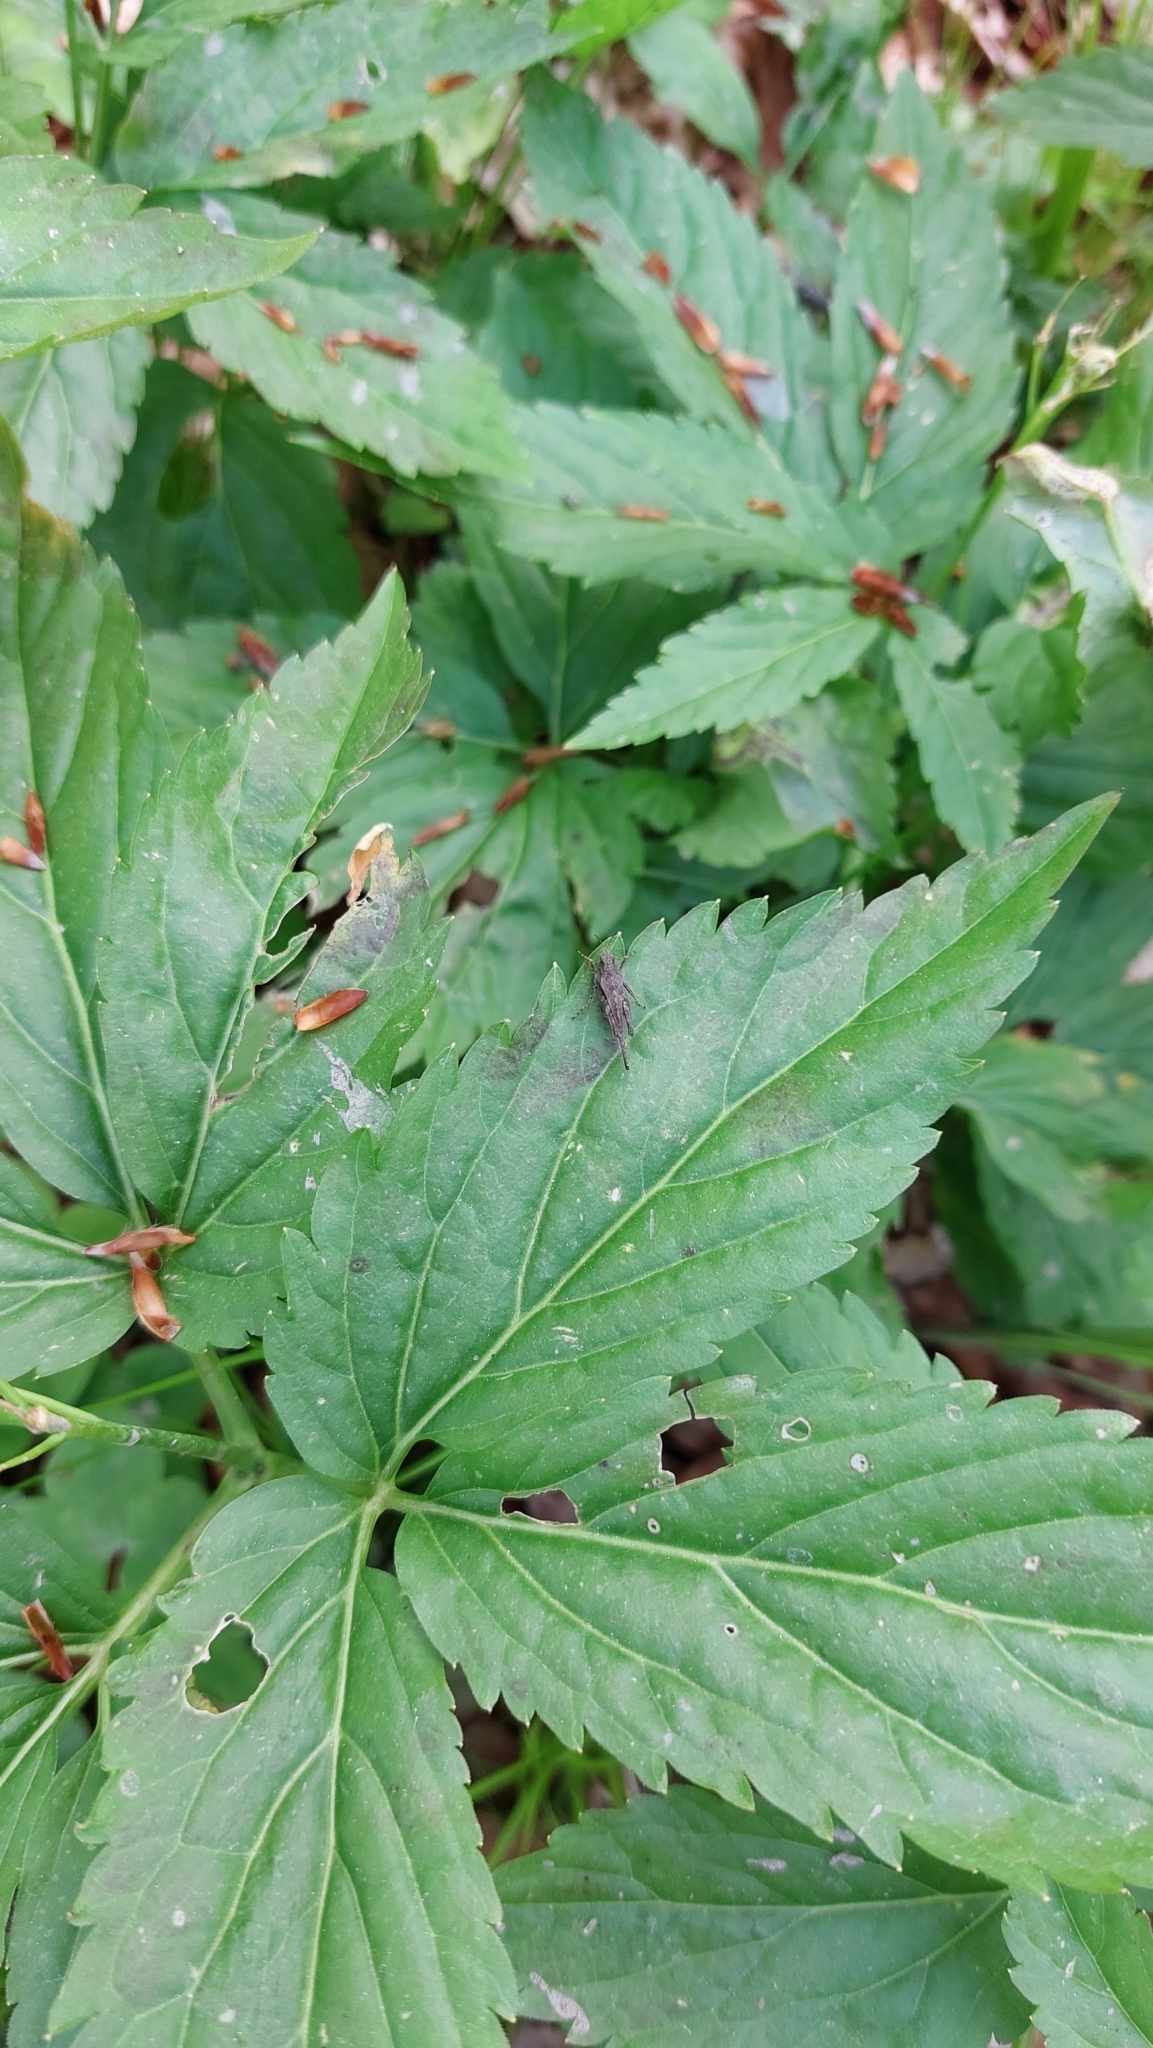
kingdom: Animalia
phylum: Arthropoda
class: Insecta
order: Orthoptera
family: Tetrigidae
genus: Tetrix
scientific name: Tetrix subulata
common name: Slender ground-hopper
